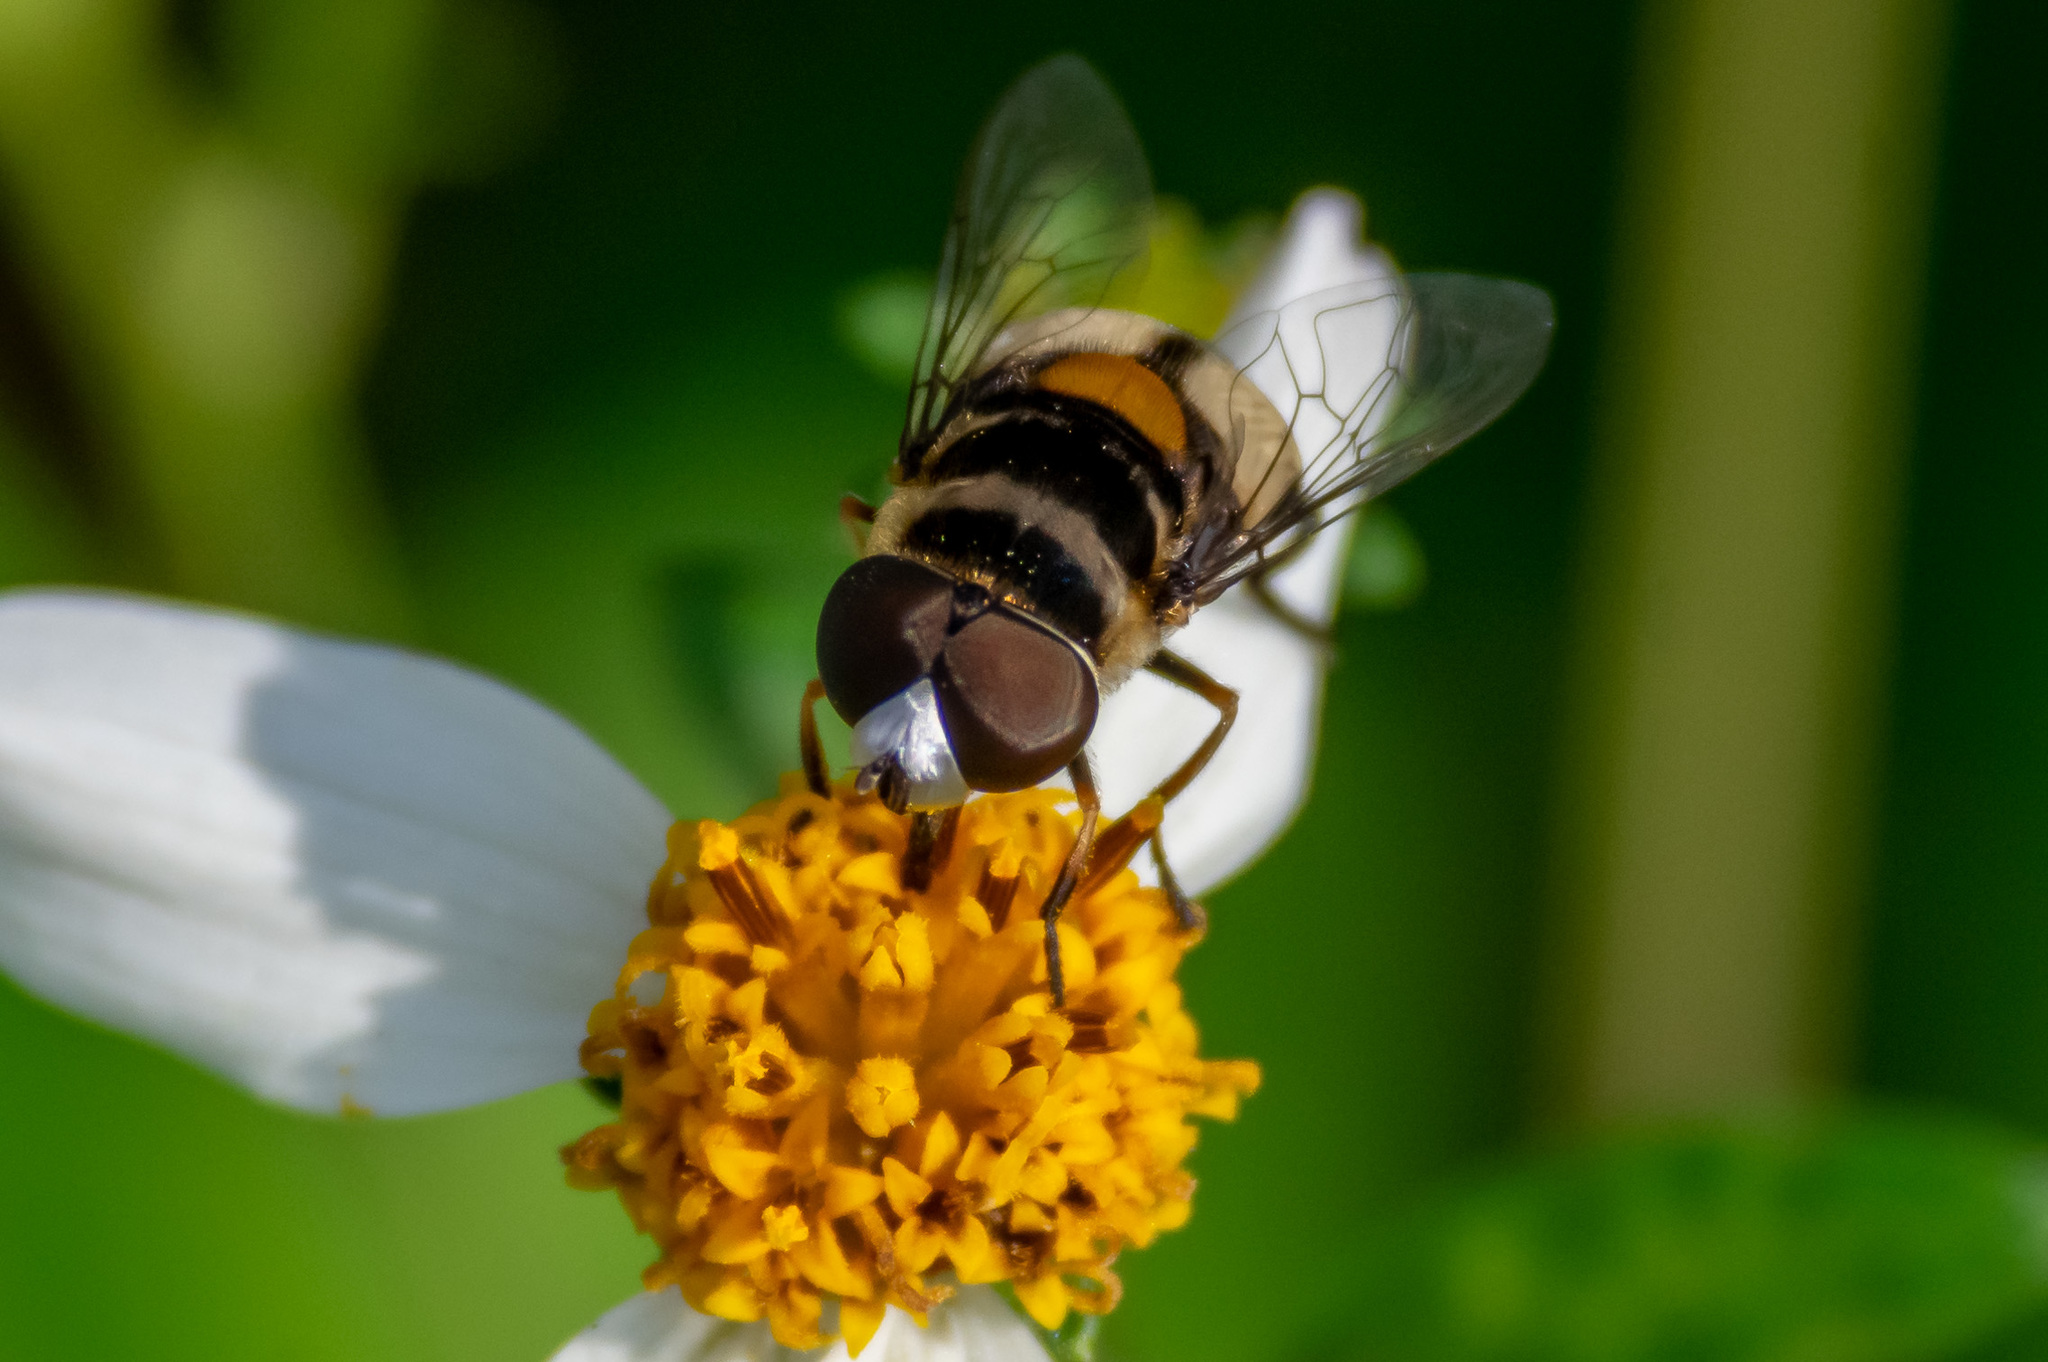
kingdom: Animalia
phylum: Arthropoda
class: Insecta
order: Diptera
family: Syrphidae
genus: Palpada
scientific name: Palpada albifrons
